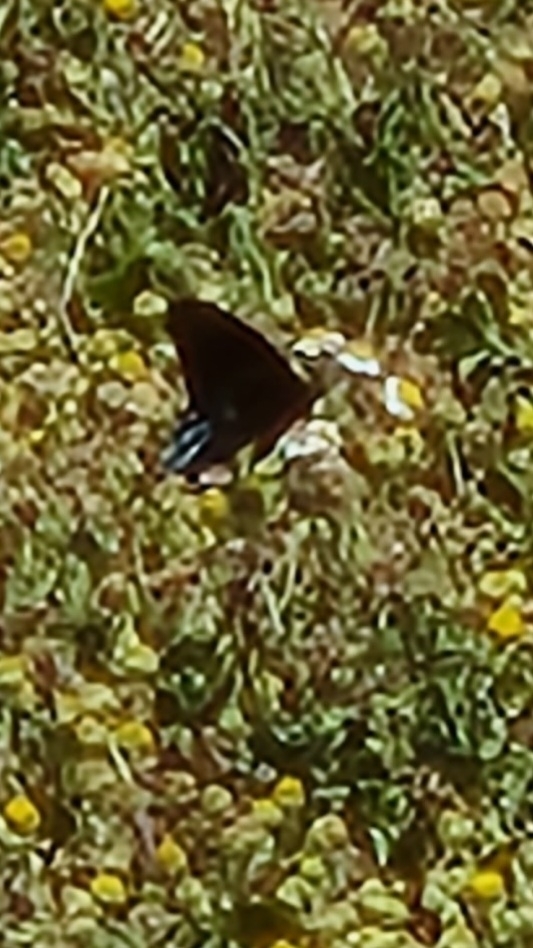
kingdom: Animalia
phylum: Arthropoda
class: Insecta
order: Lepidoptera
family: Papilionidae
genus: Battus
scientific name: Battus philenor
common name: Pipevine swallowtail
